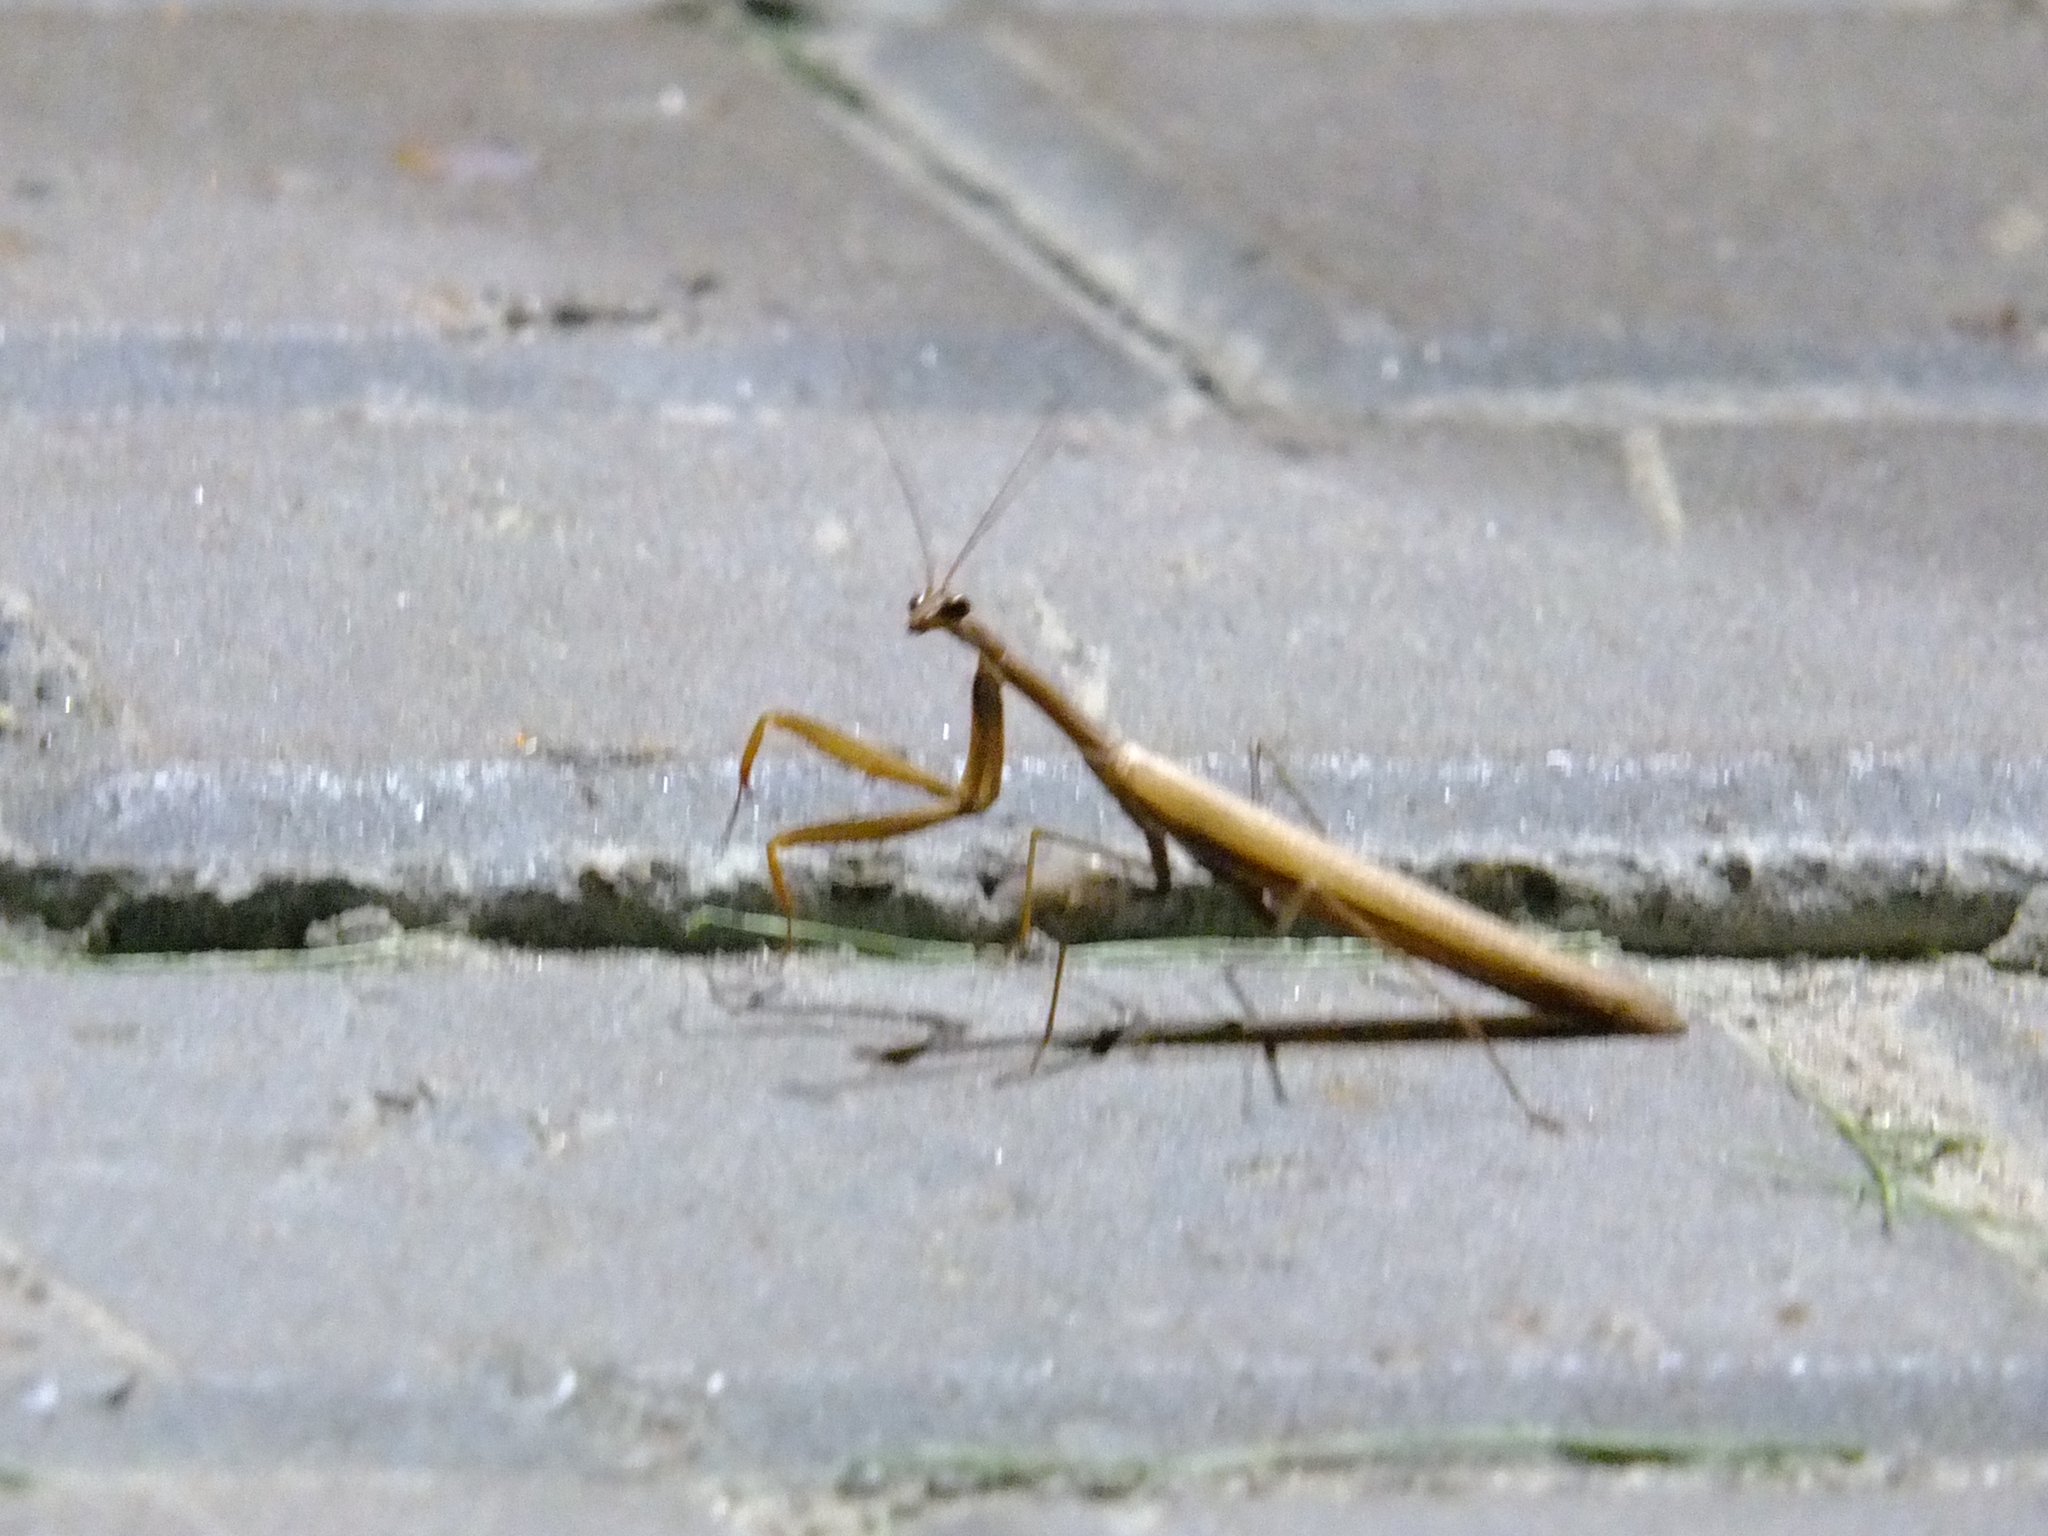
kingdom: Animalia
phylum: Arthropoda
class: Insecta
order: Mantodea
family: Mantidae
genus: Mantis
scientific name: Mantis religiosa
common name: Praying mantis
